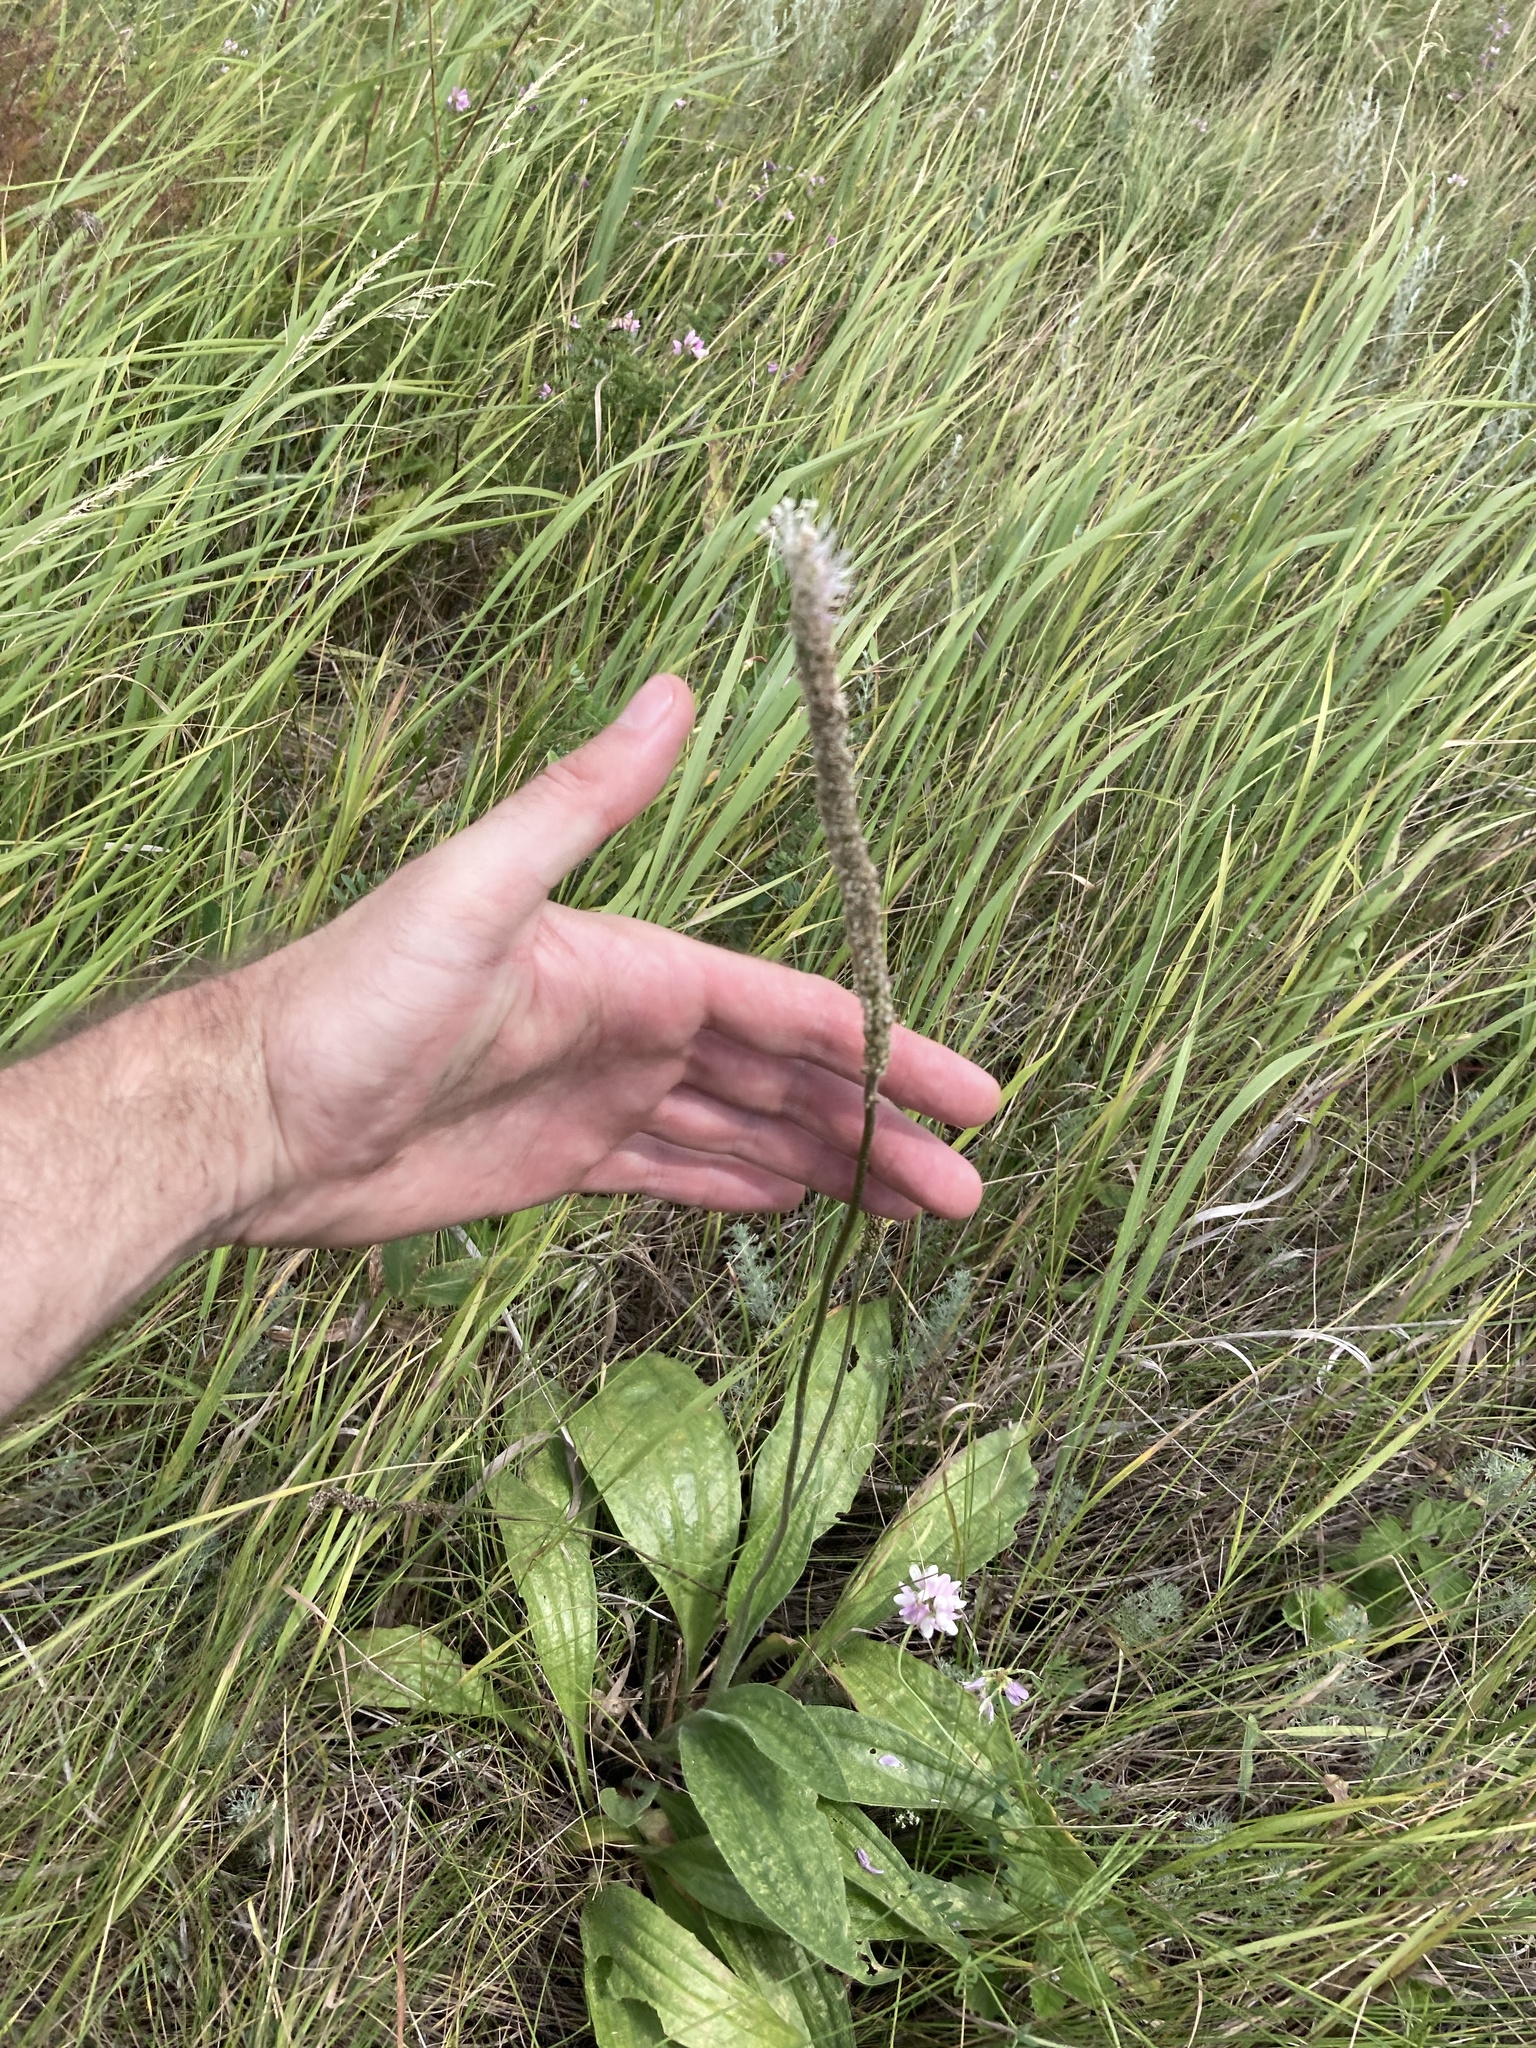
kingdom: Plantae
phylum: Tracheophyta
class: Magnoliopsida
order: Lamiales
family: Plantaginaceae
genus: Plantago
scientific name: Plantago urvillei
